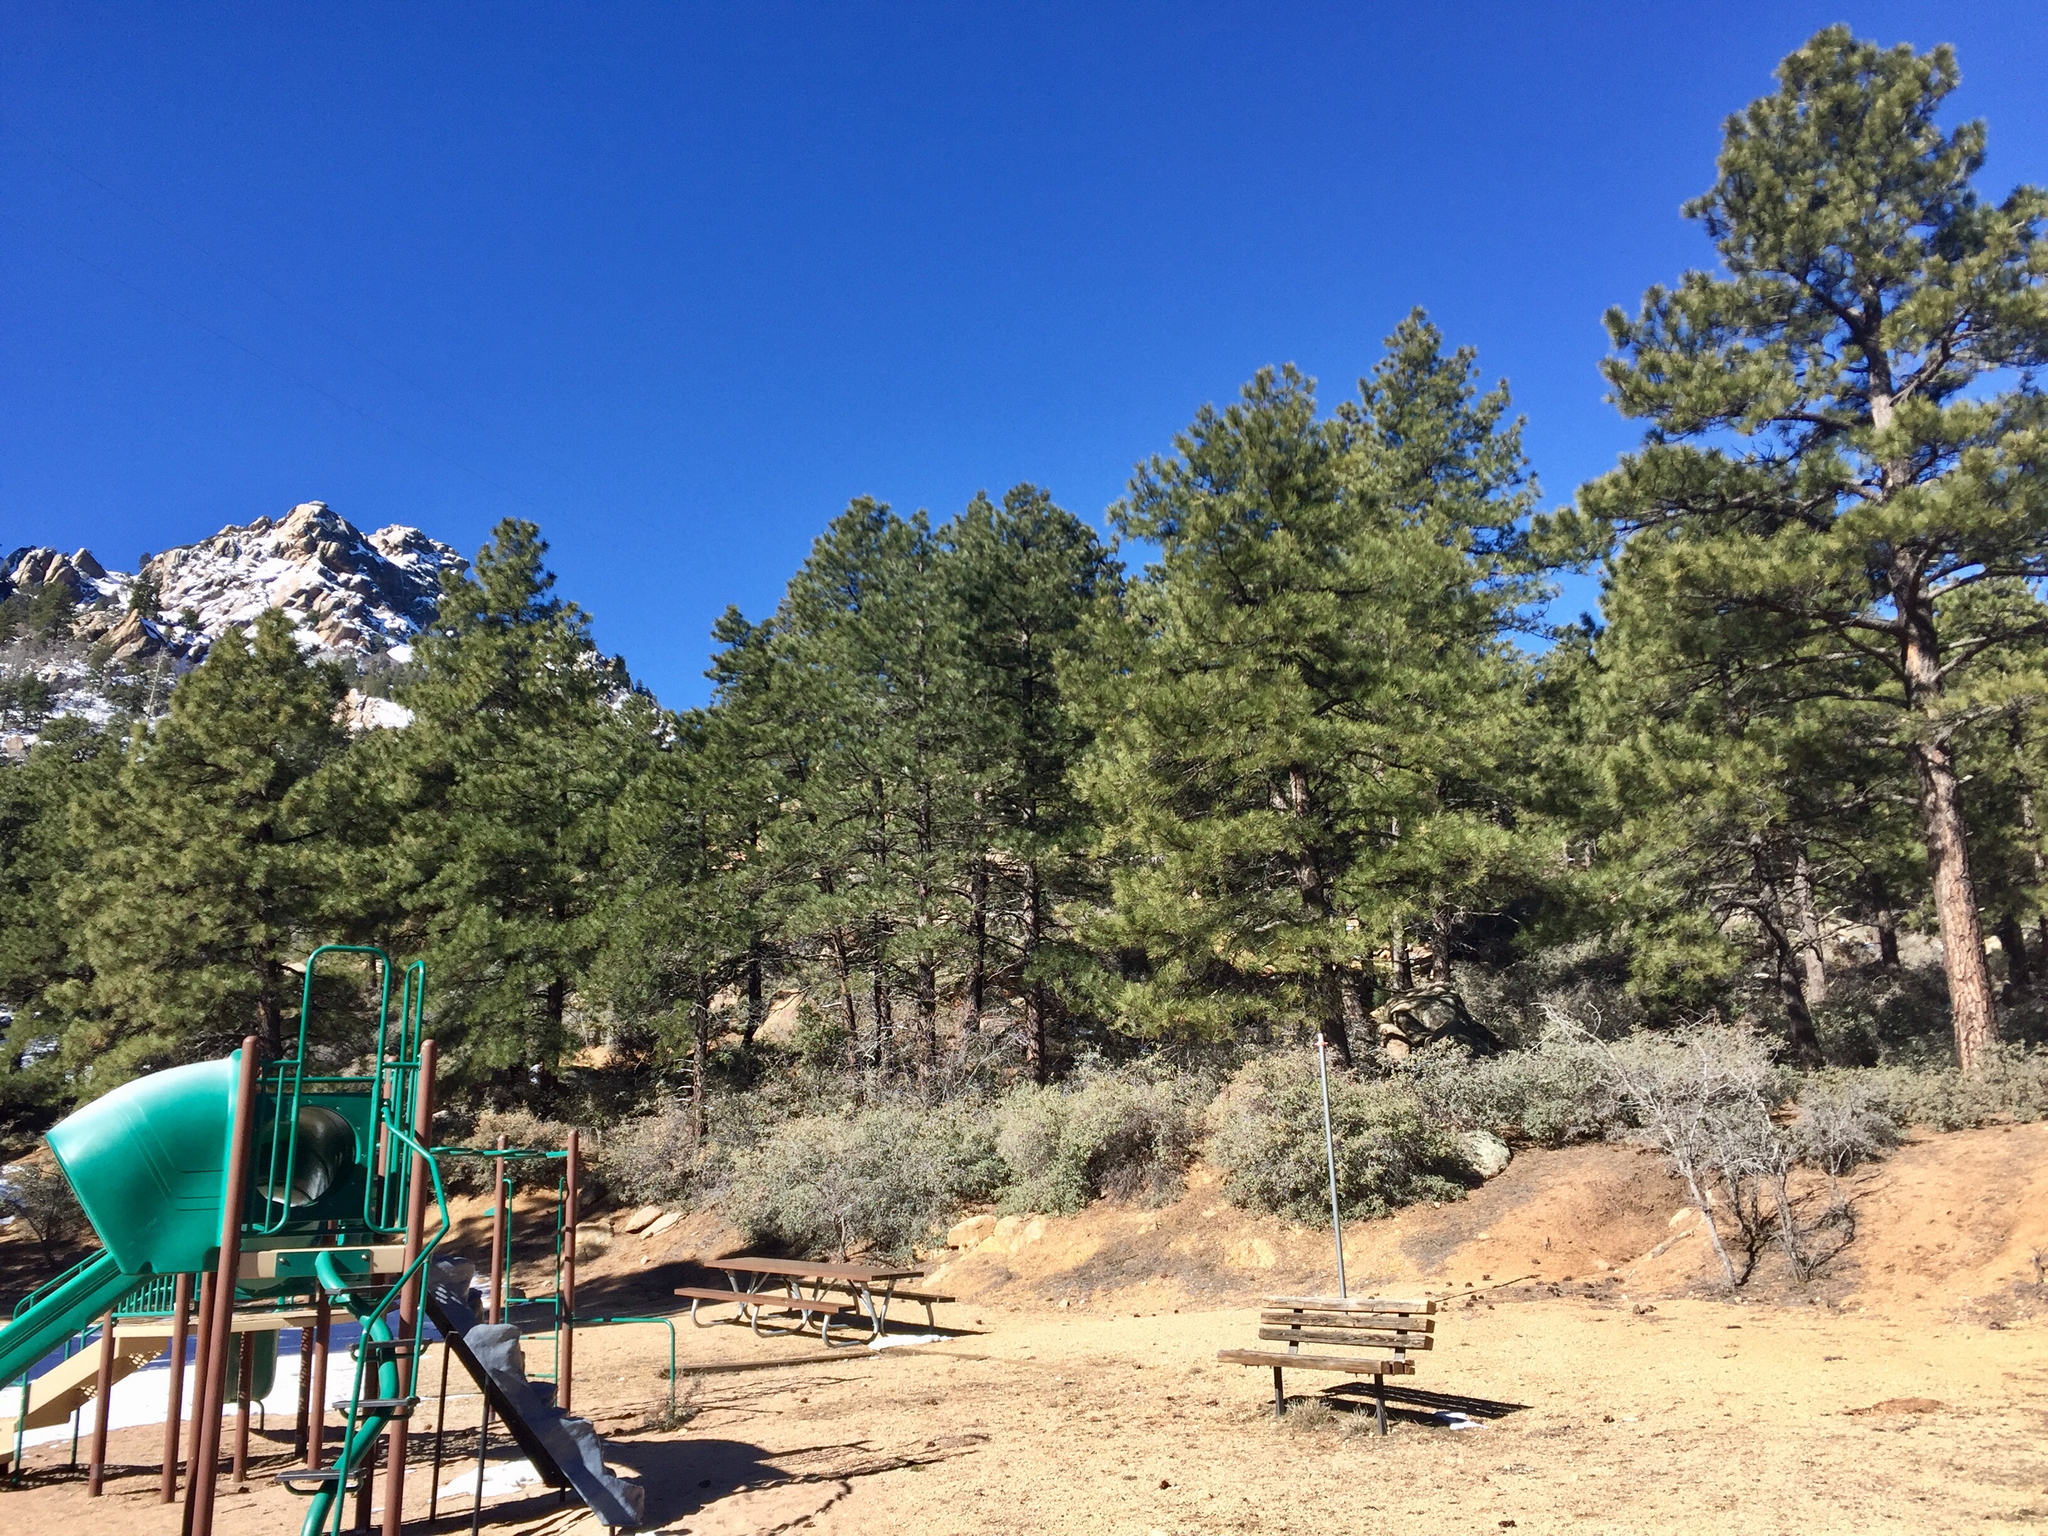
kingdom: Plantae
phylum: Tracheophyta
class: Pinopsida
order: Pinales
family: Pinaceae
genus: Pinus
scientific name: Pinus ponderosa
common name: Western yellow-pine
